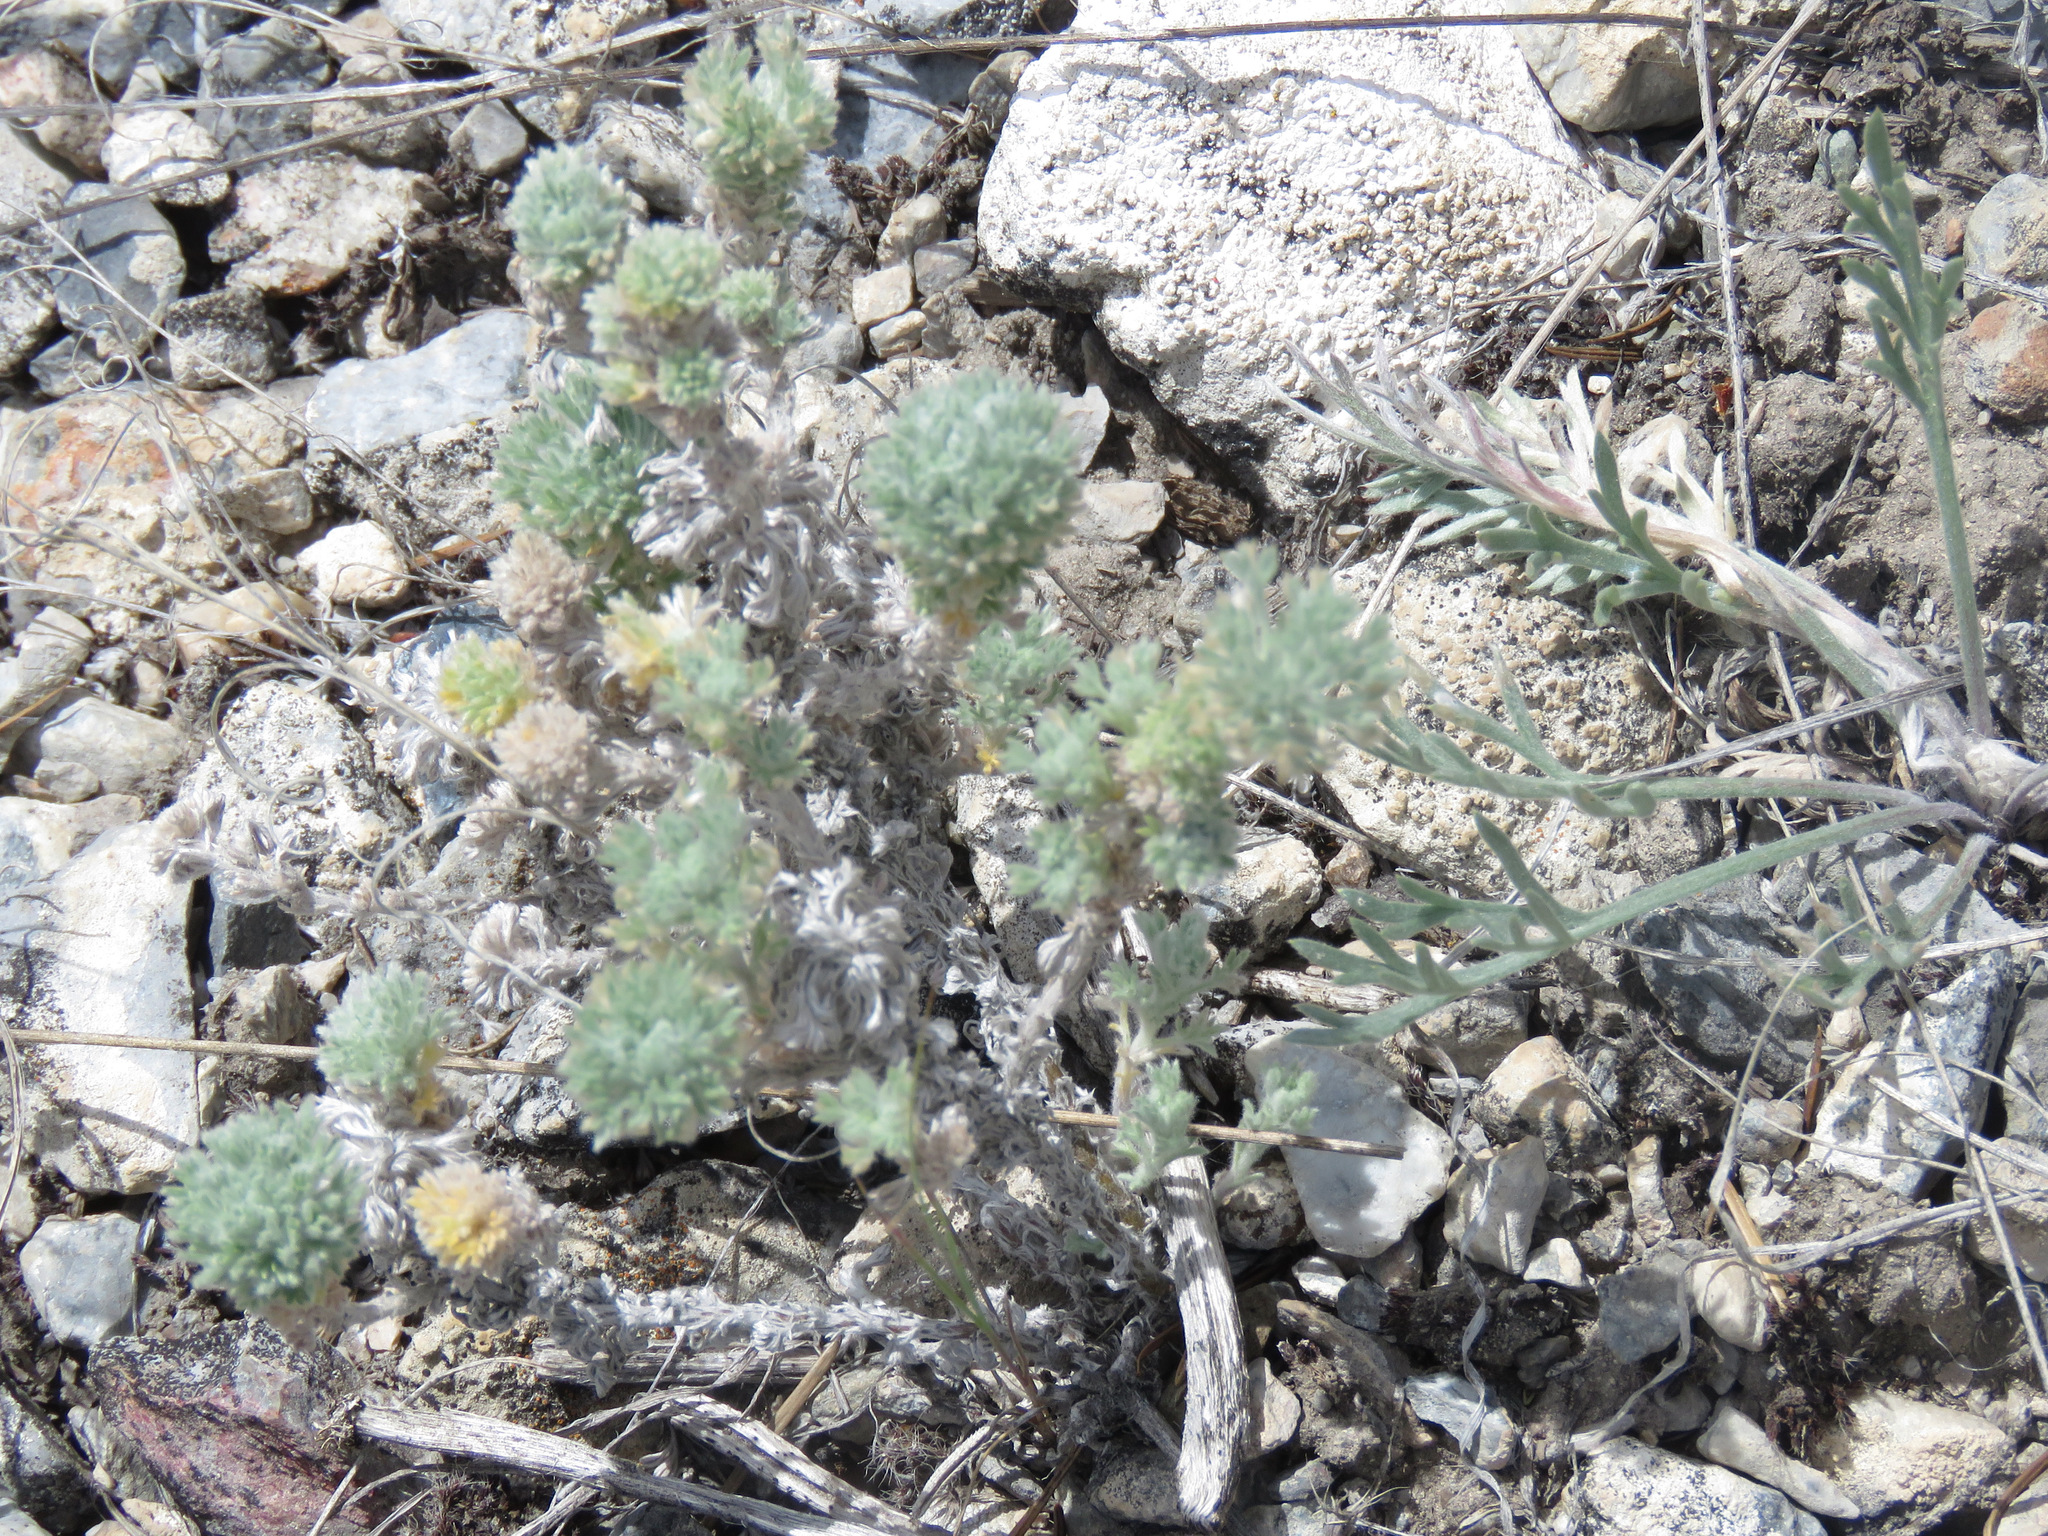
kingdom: Plantae
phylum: Tracheophyta
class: Magnoliopsida
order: Asterales
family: Asteraceae
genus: Artemisia
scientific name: Artemisia frigida
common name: Prairie sagewort
